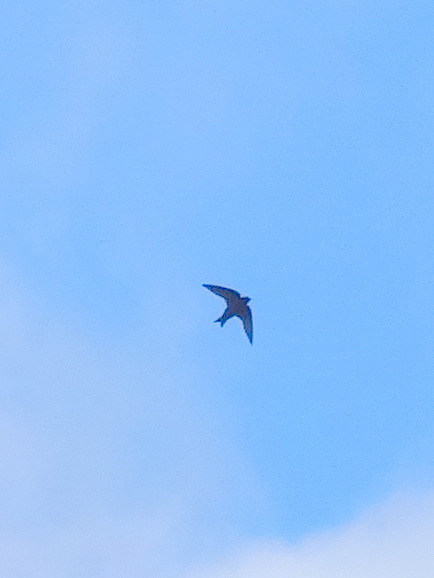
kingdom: Animalia
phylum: Chordata
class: Aves
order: Passeriformes
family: Hirundinidae
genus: Progne
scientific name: Progne subis
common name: Purple martin
